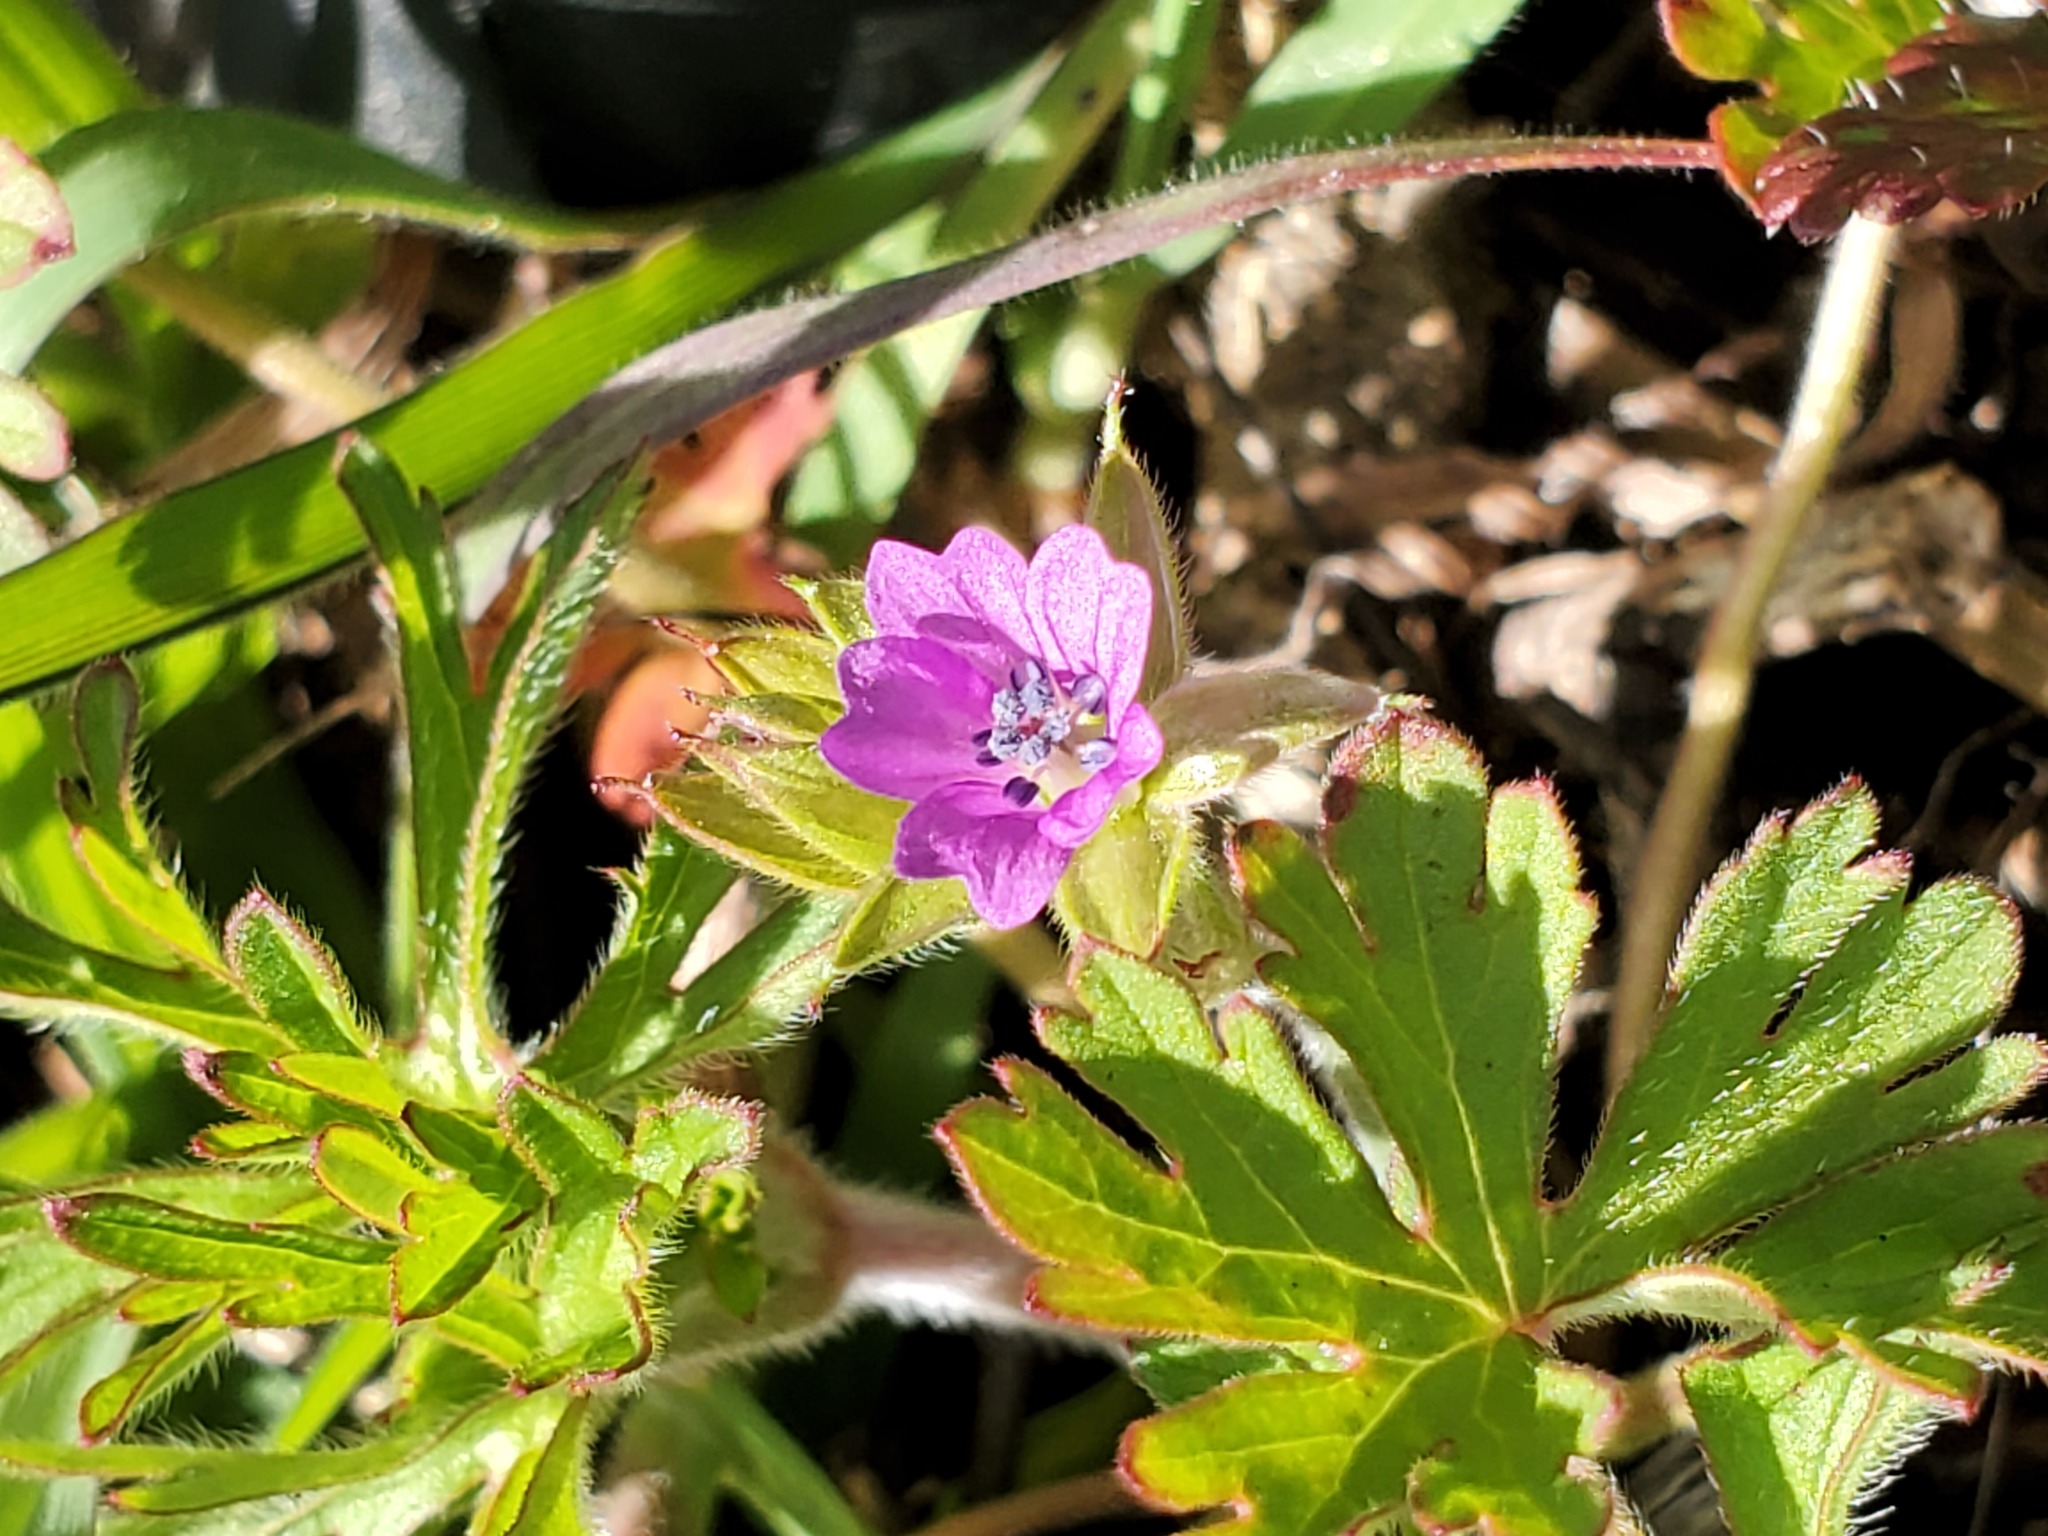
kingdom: Plantae
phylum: Tracheophyta
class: Magnoliopsida
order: Geraniales
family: Geraniaceae
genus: Geranium
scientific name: Geranium dissectum
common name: Cut-leaved crane's-bill
